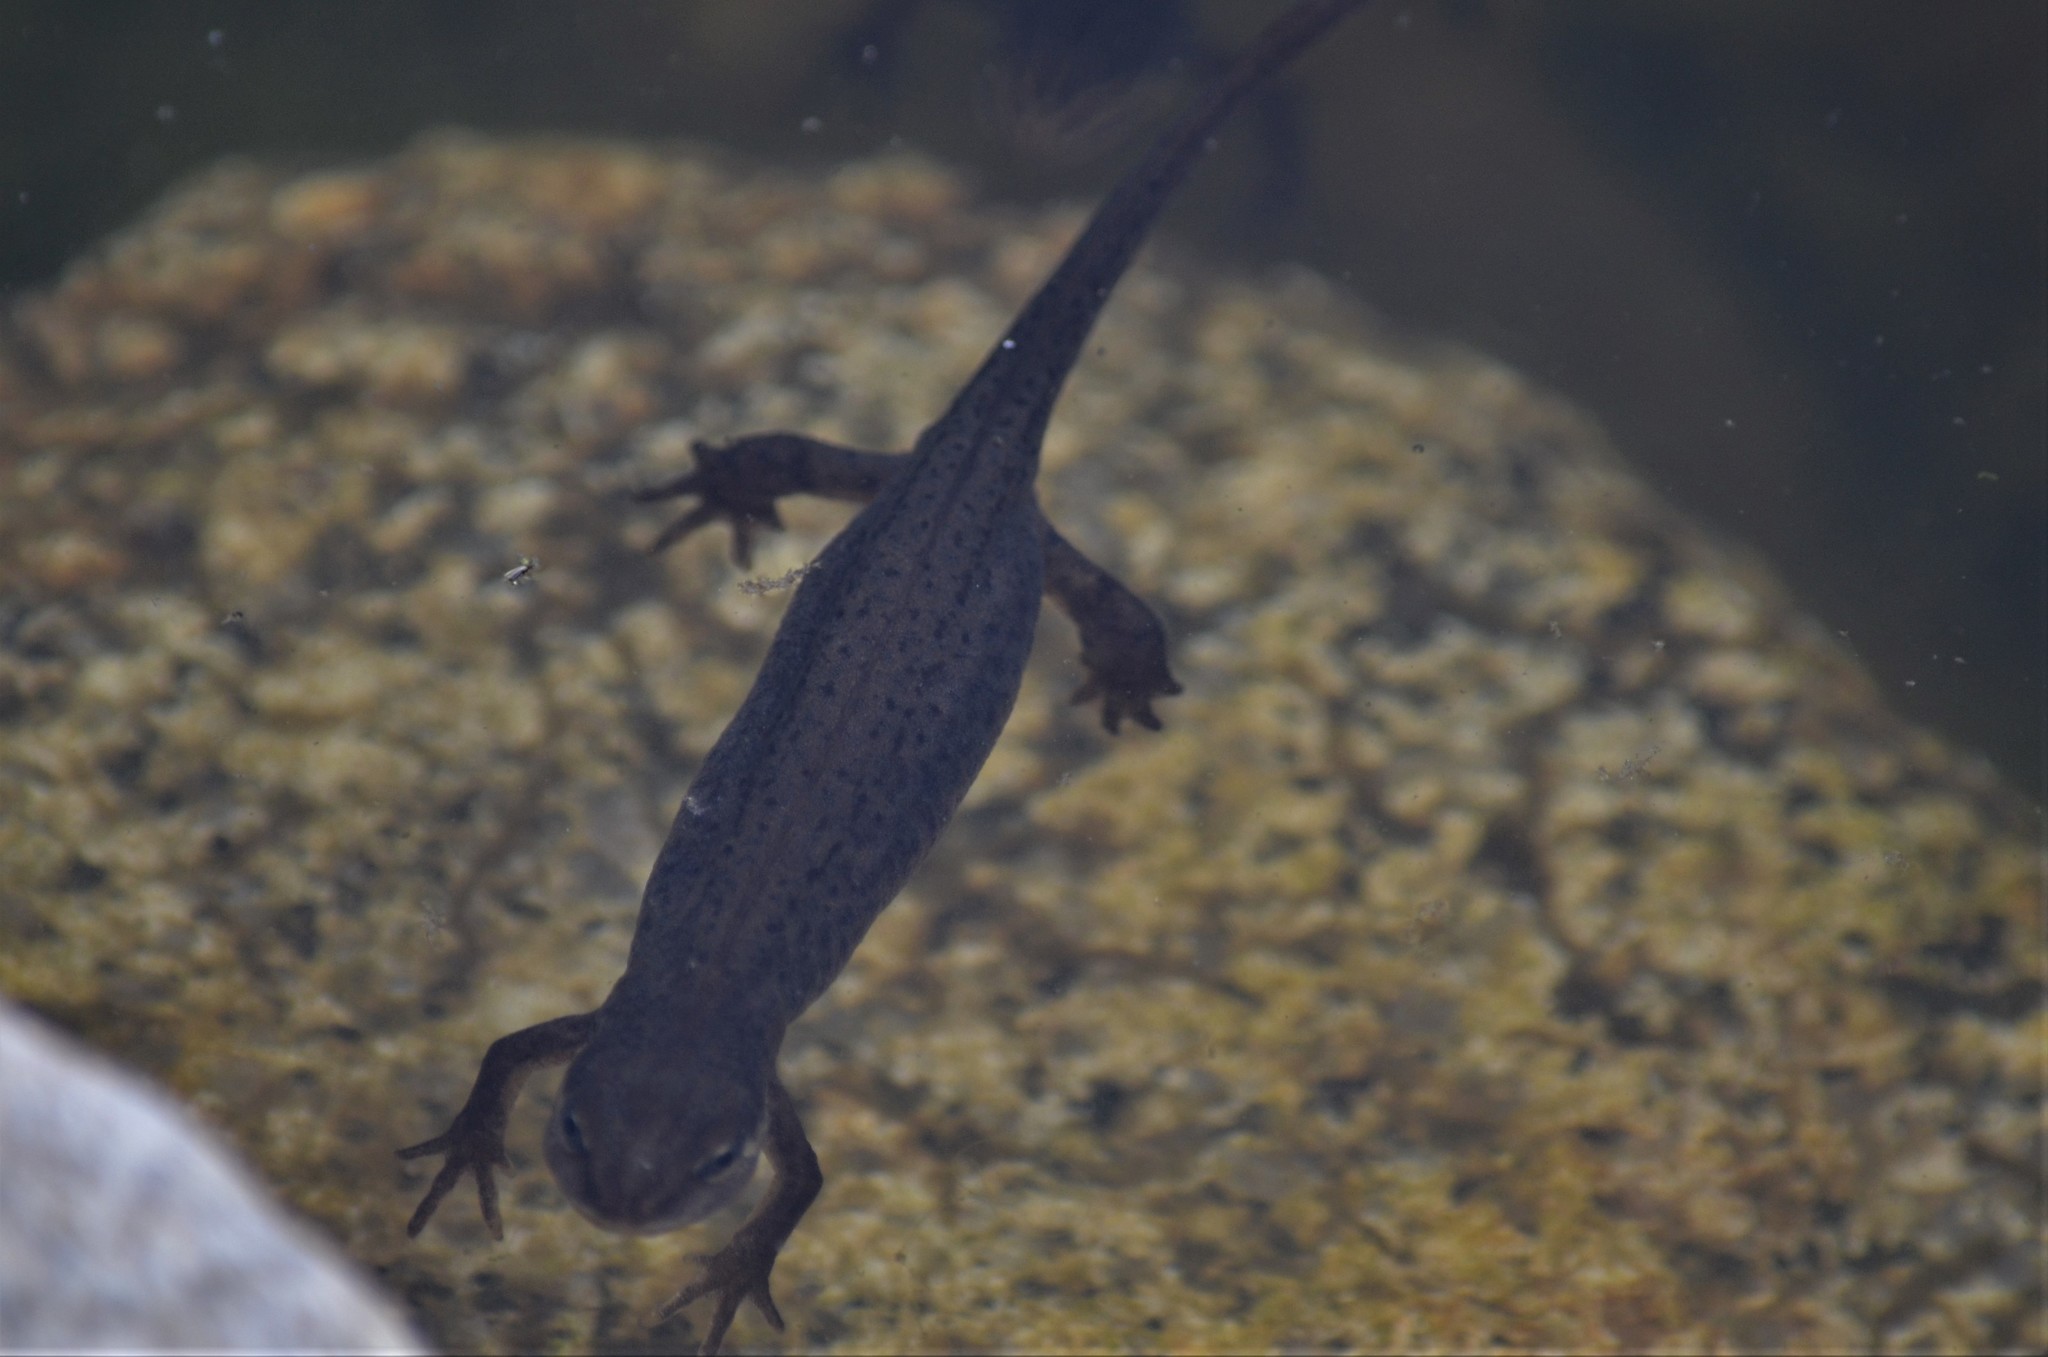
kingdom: Animalia
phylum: Chordata
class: Amphibia
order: Caudata
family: Salamandridae
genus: Lissotriton
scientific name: Lissotriton vulgaris
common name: Smooth newt
